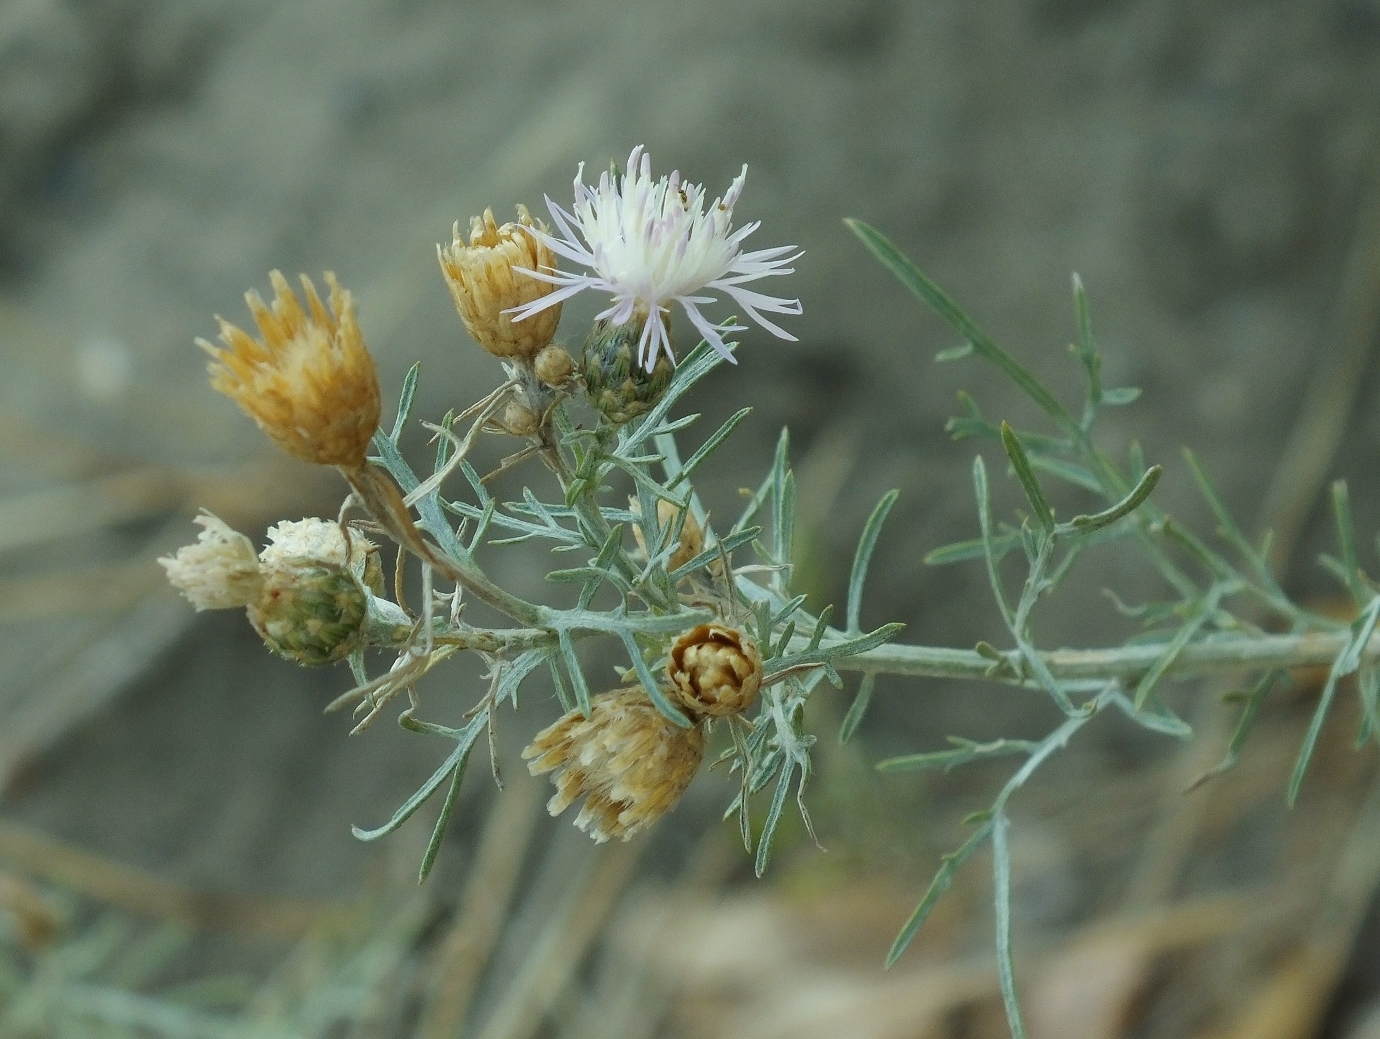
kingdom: Plantae
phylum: Tracheophyta
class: Magnoliopsida
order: Asterales
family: Asteraceae
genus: Centaurea
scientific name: Centaurea arenaria
